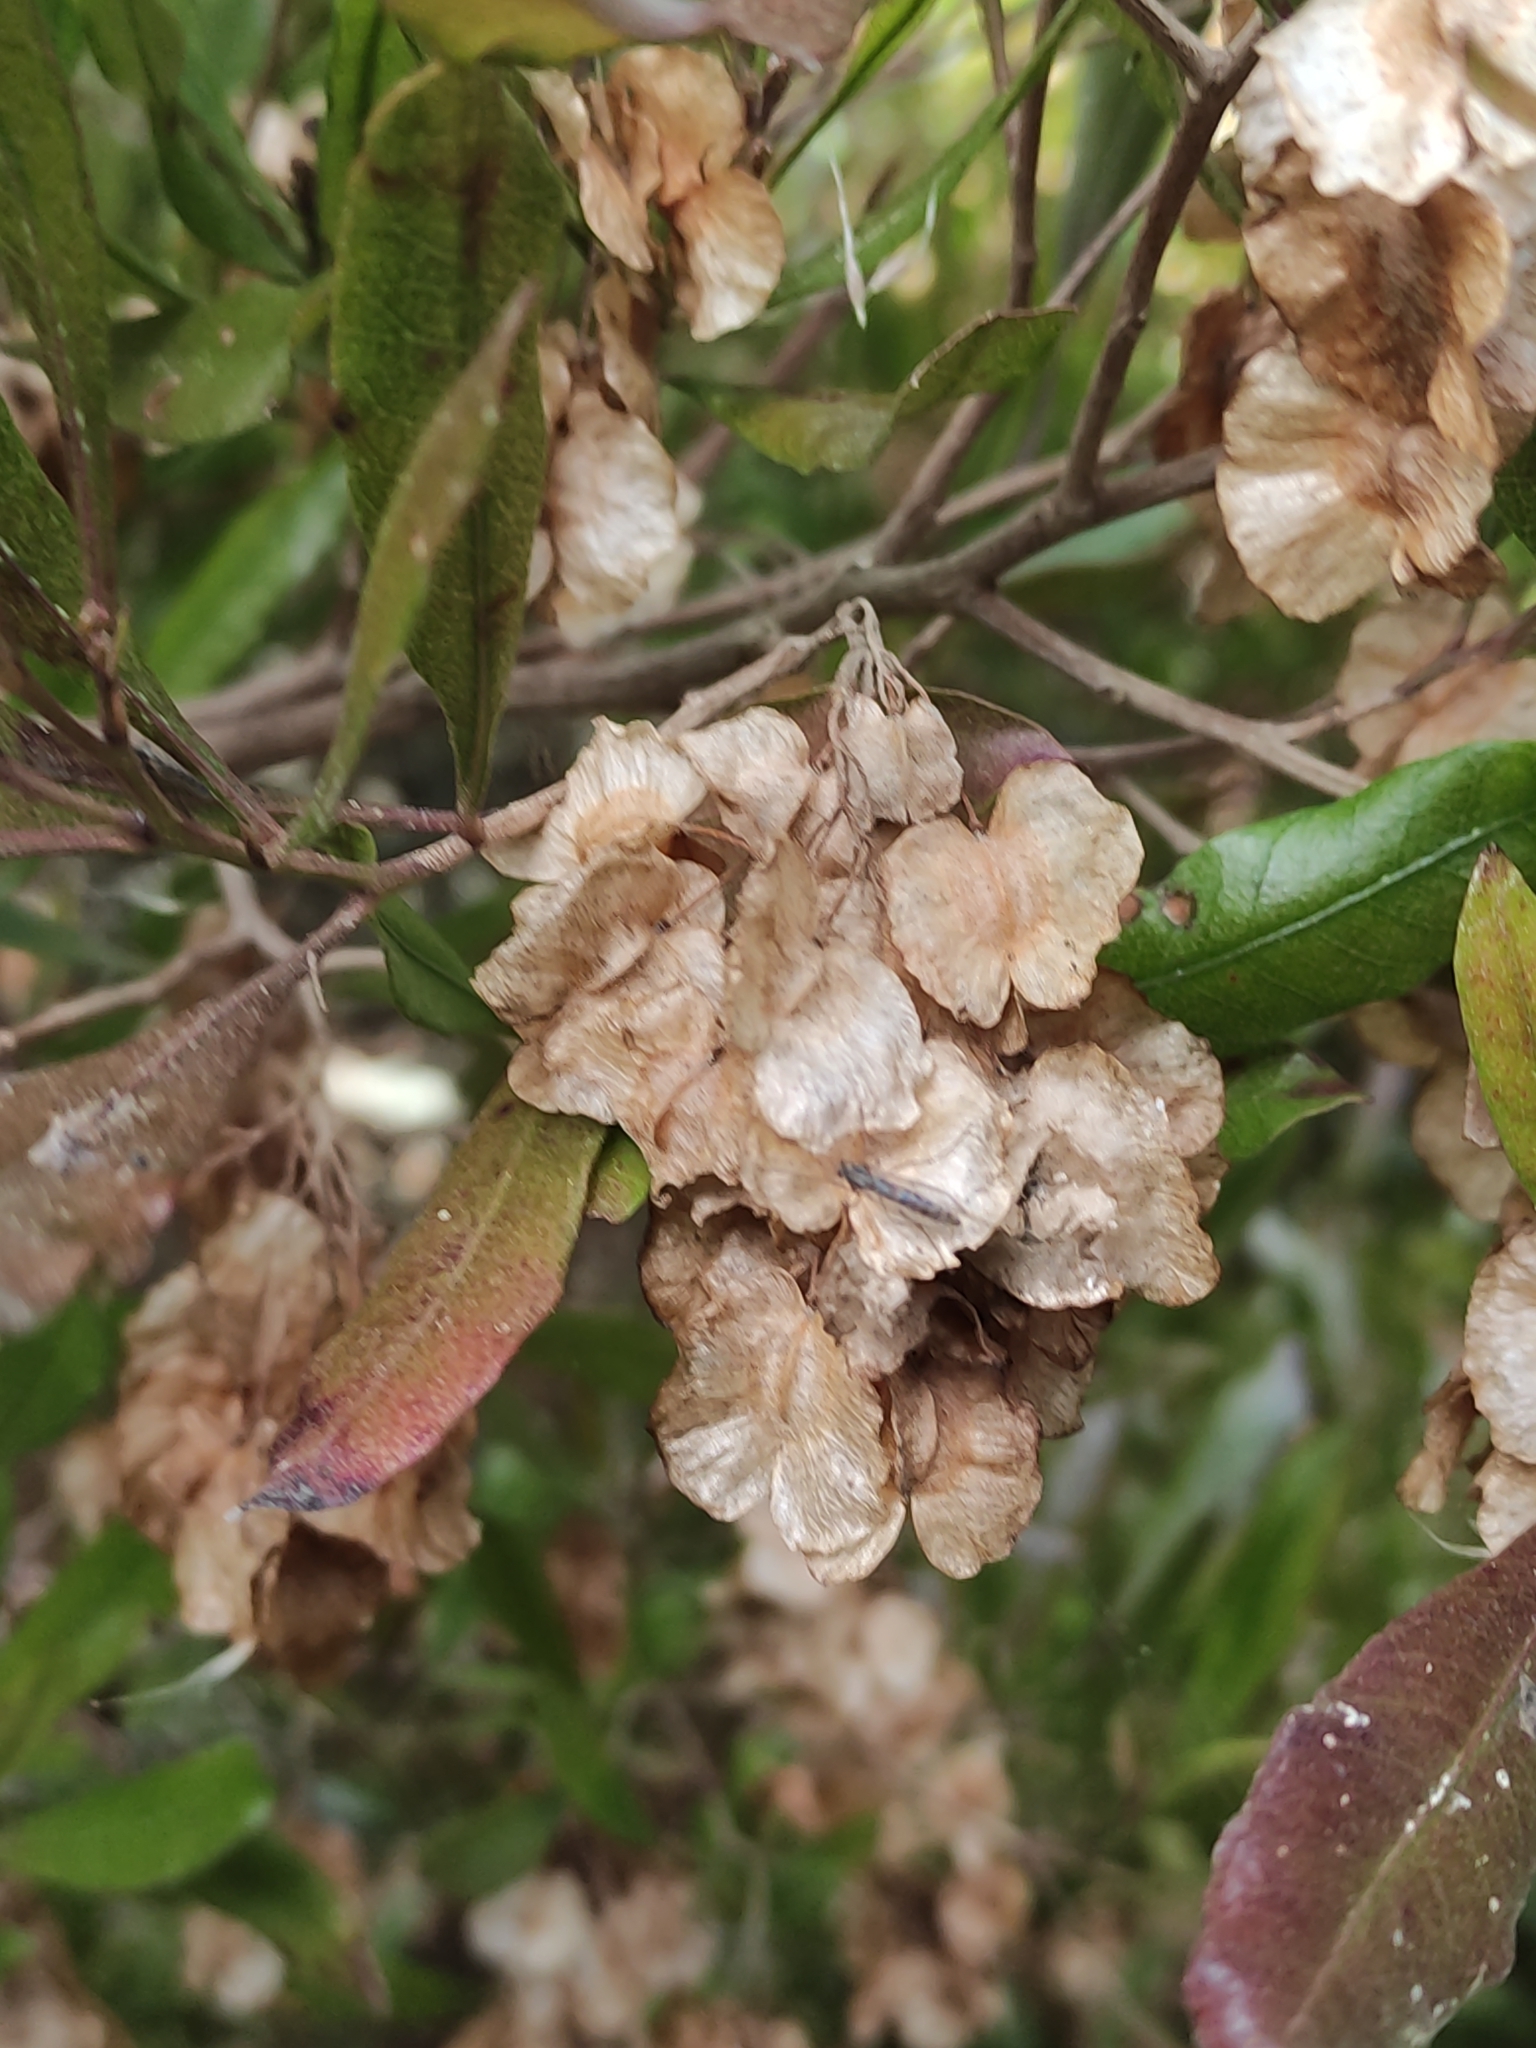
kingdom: Plantae
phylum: Tracheophyta
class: Magnoliopsida
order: Sapindales
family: Sapindaceae
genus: Dodonaea
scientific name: Dodonaea viscosa
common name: Hopbush
